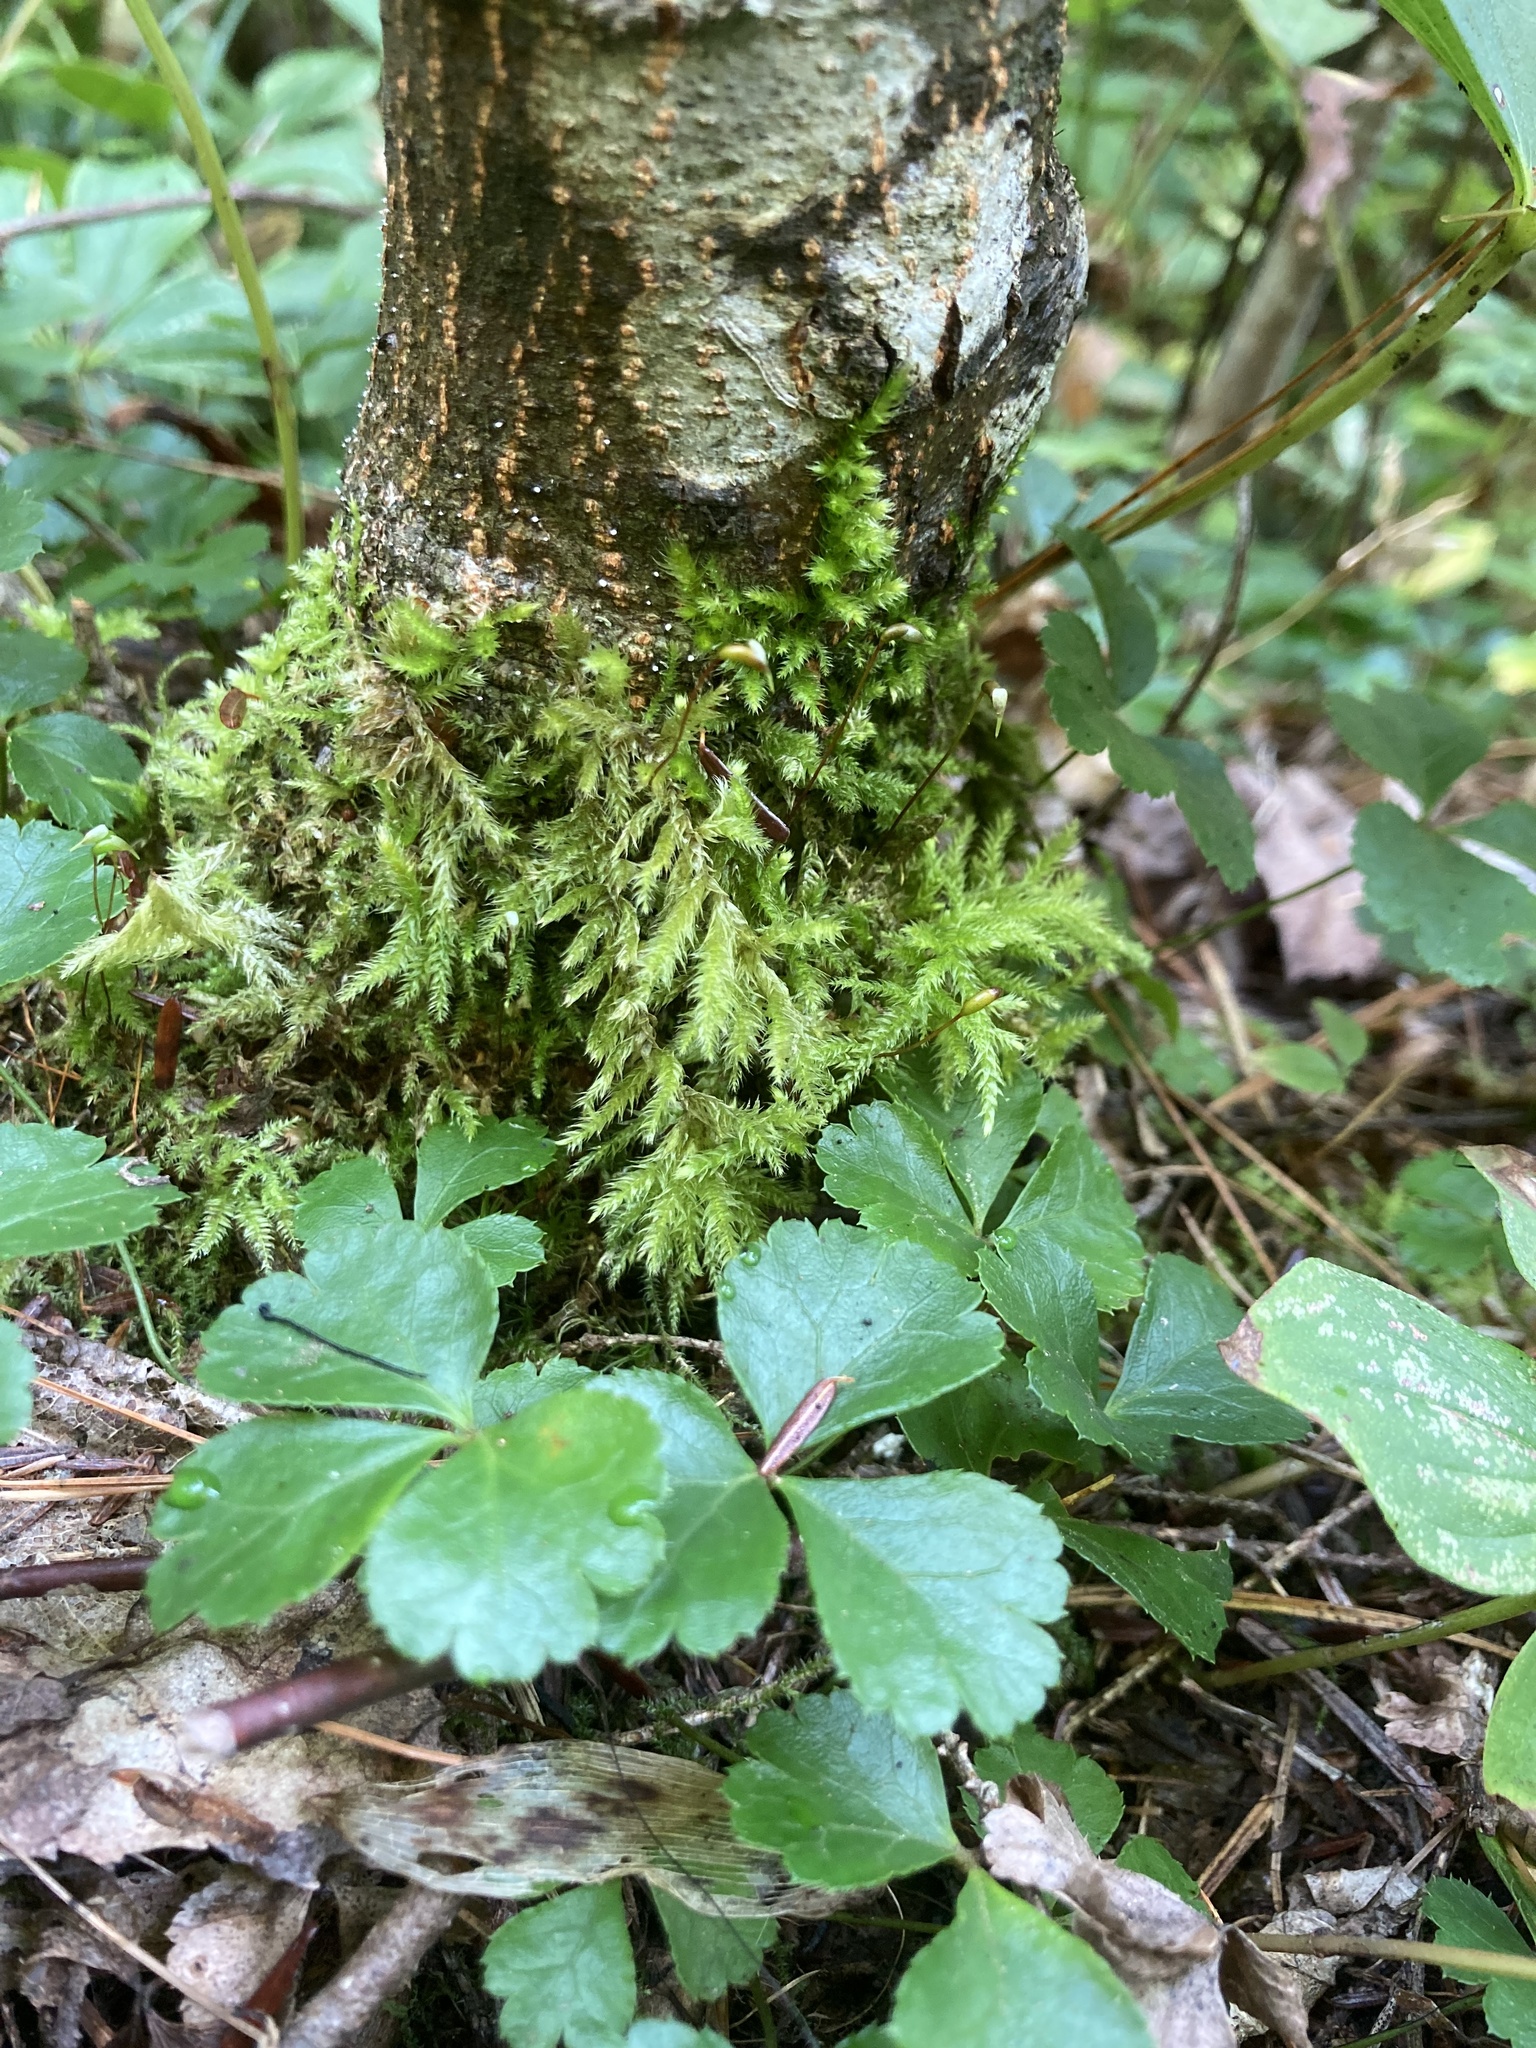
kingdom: Plantae
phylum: Bryophyta
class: Bryopsida
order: Hypnales
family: Callicladiaceae
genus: Callicladium
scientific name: Callicladium haldanianum
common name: Beautiful branch moss
